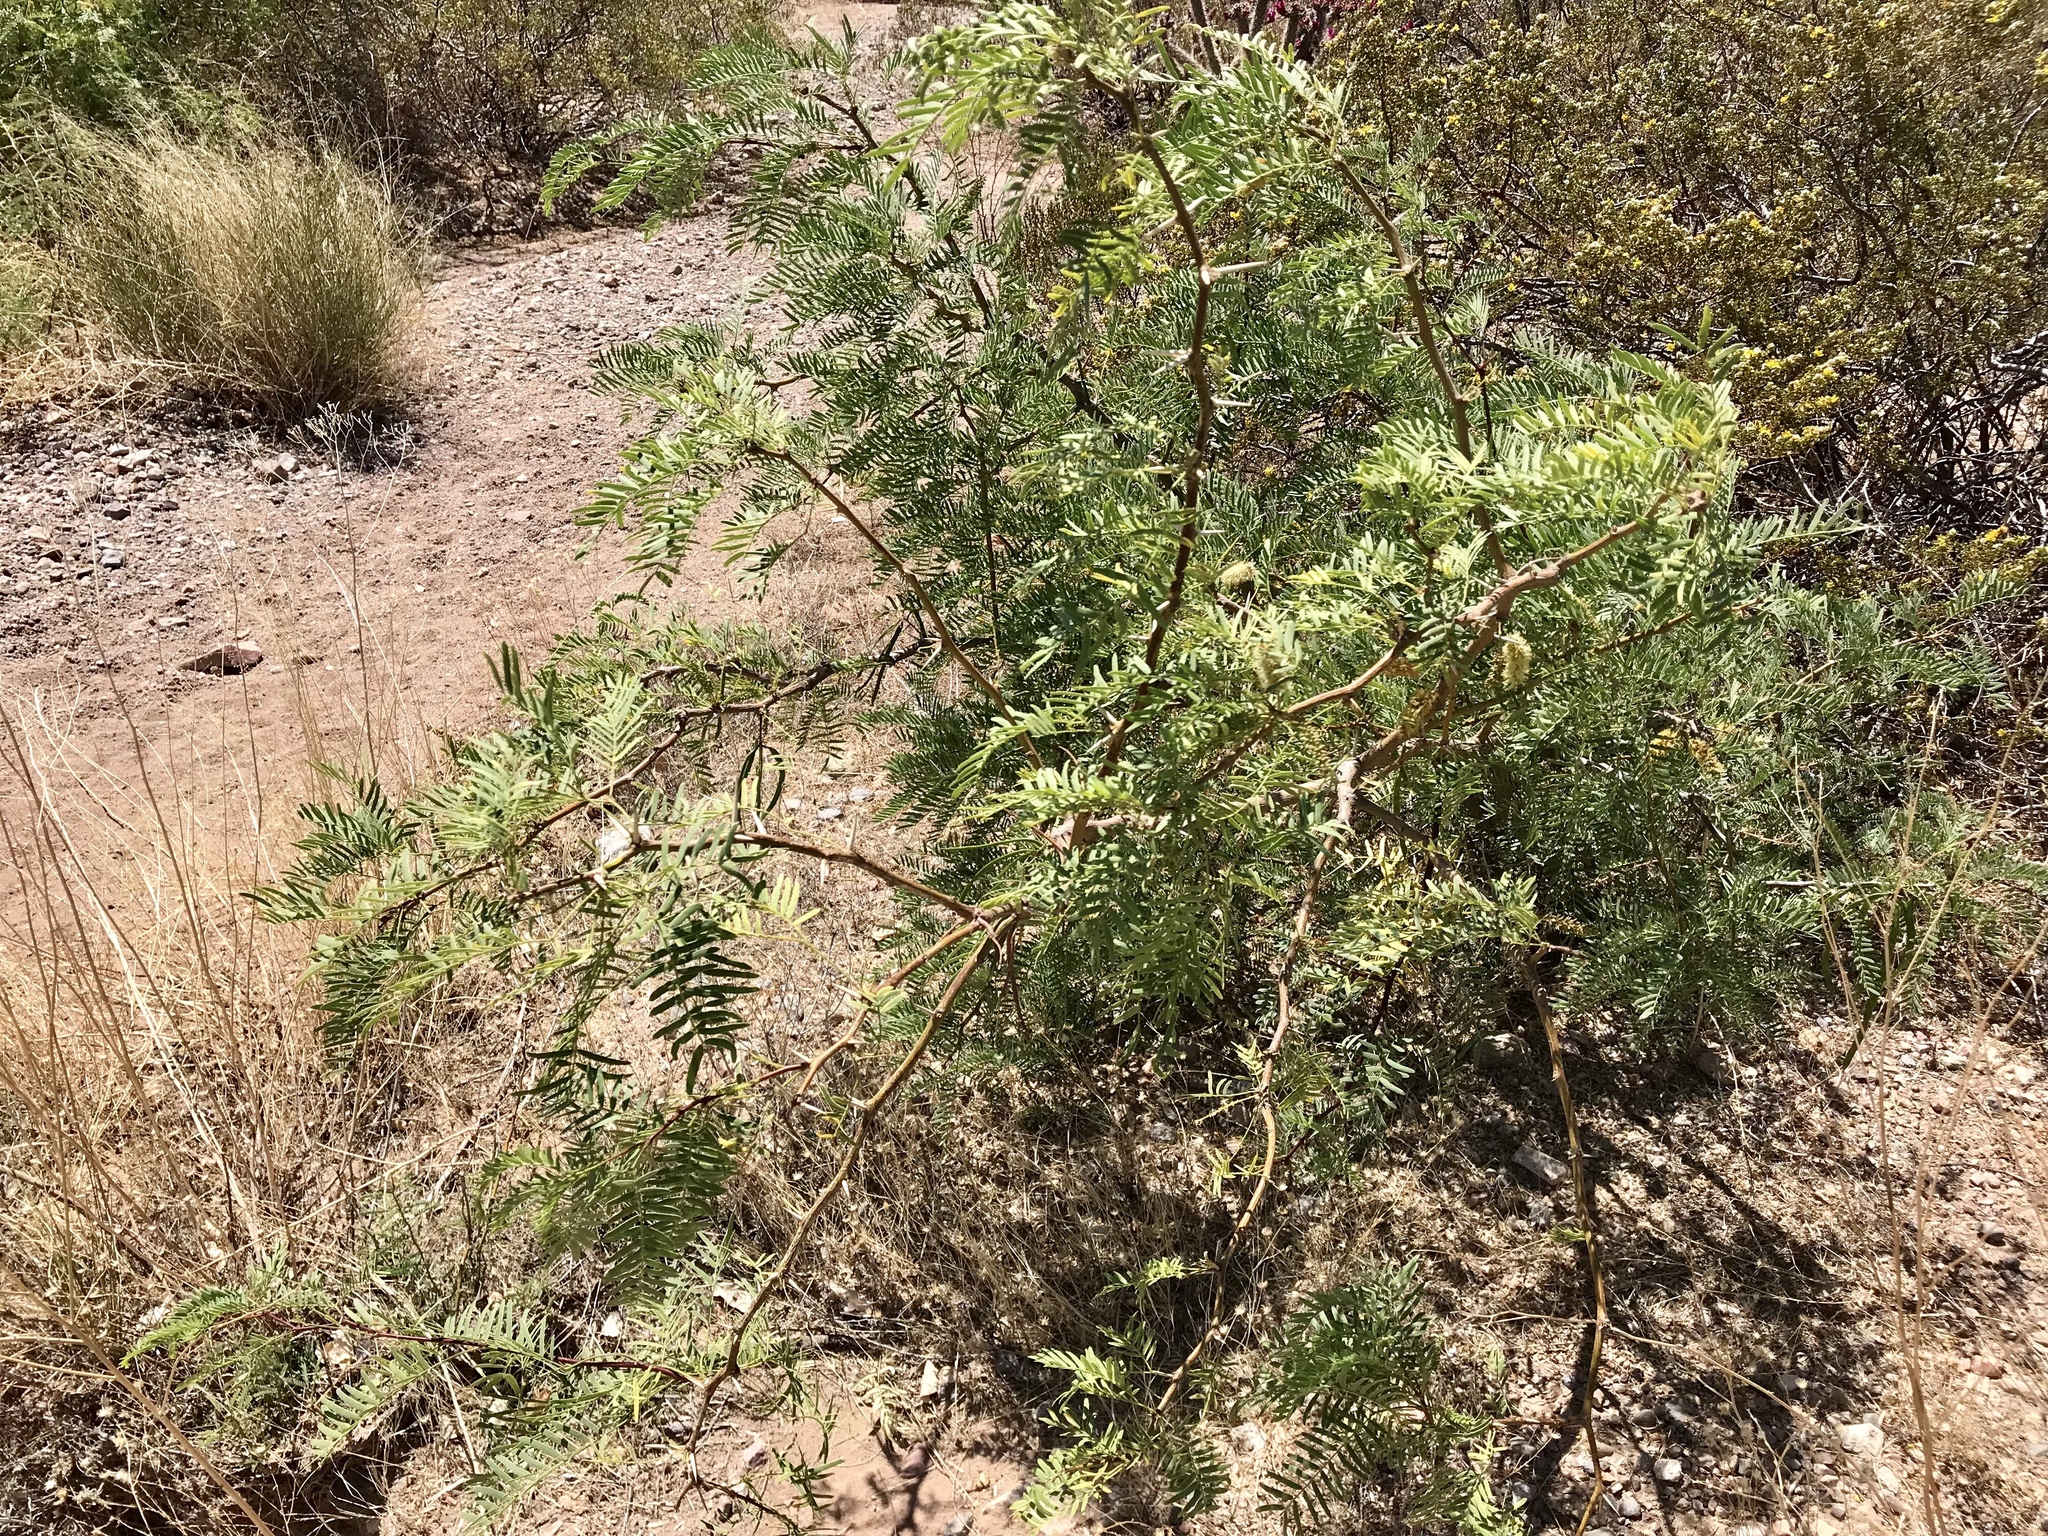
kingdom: Plantae
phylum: Tracheophyta
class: Magnoliopsida
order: Fabales
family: Fabaceae
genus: Prosopis
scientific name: Prosopis glandulosa
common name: Honey mesquite
